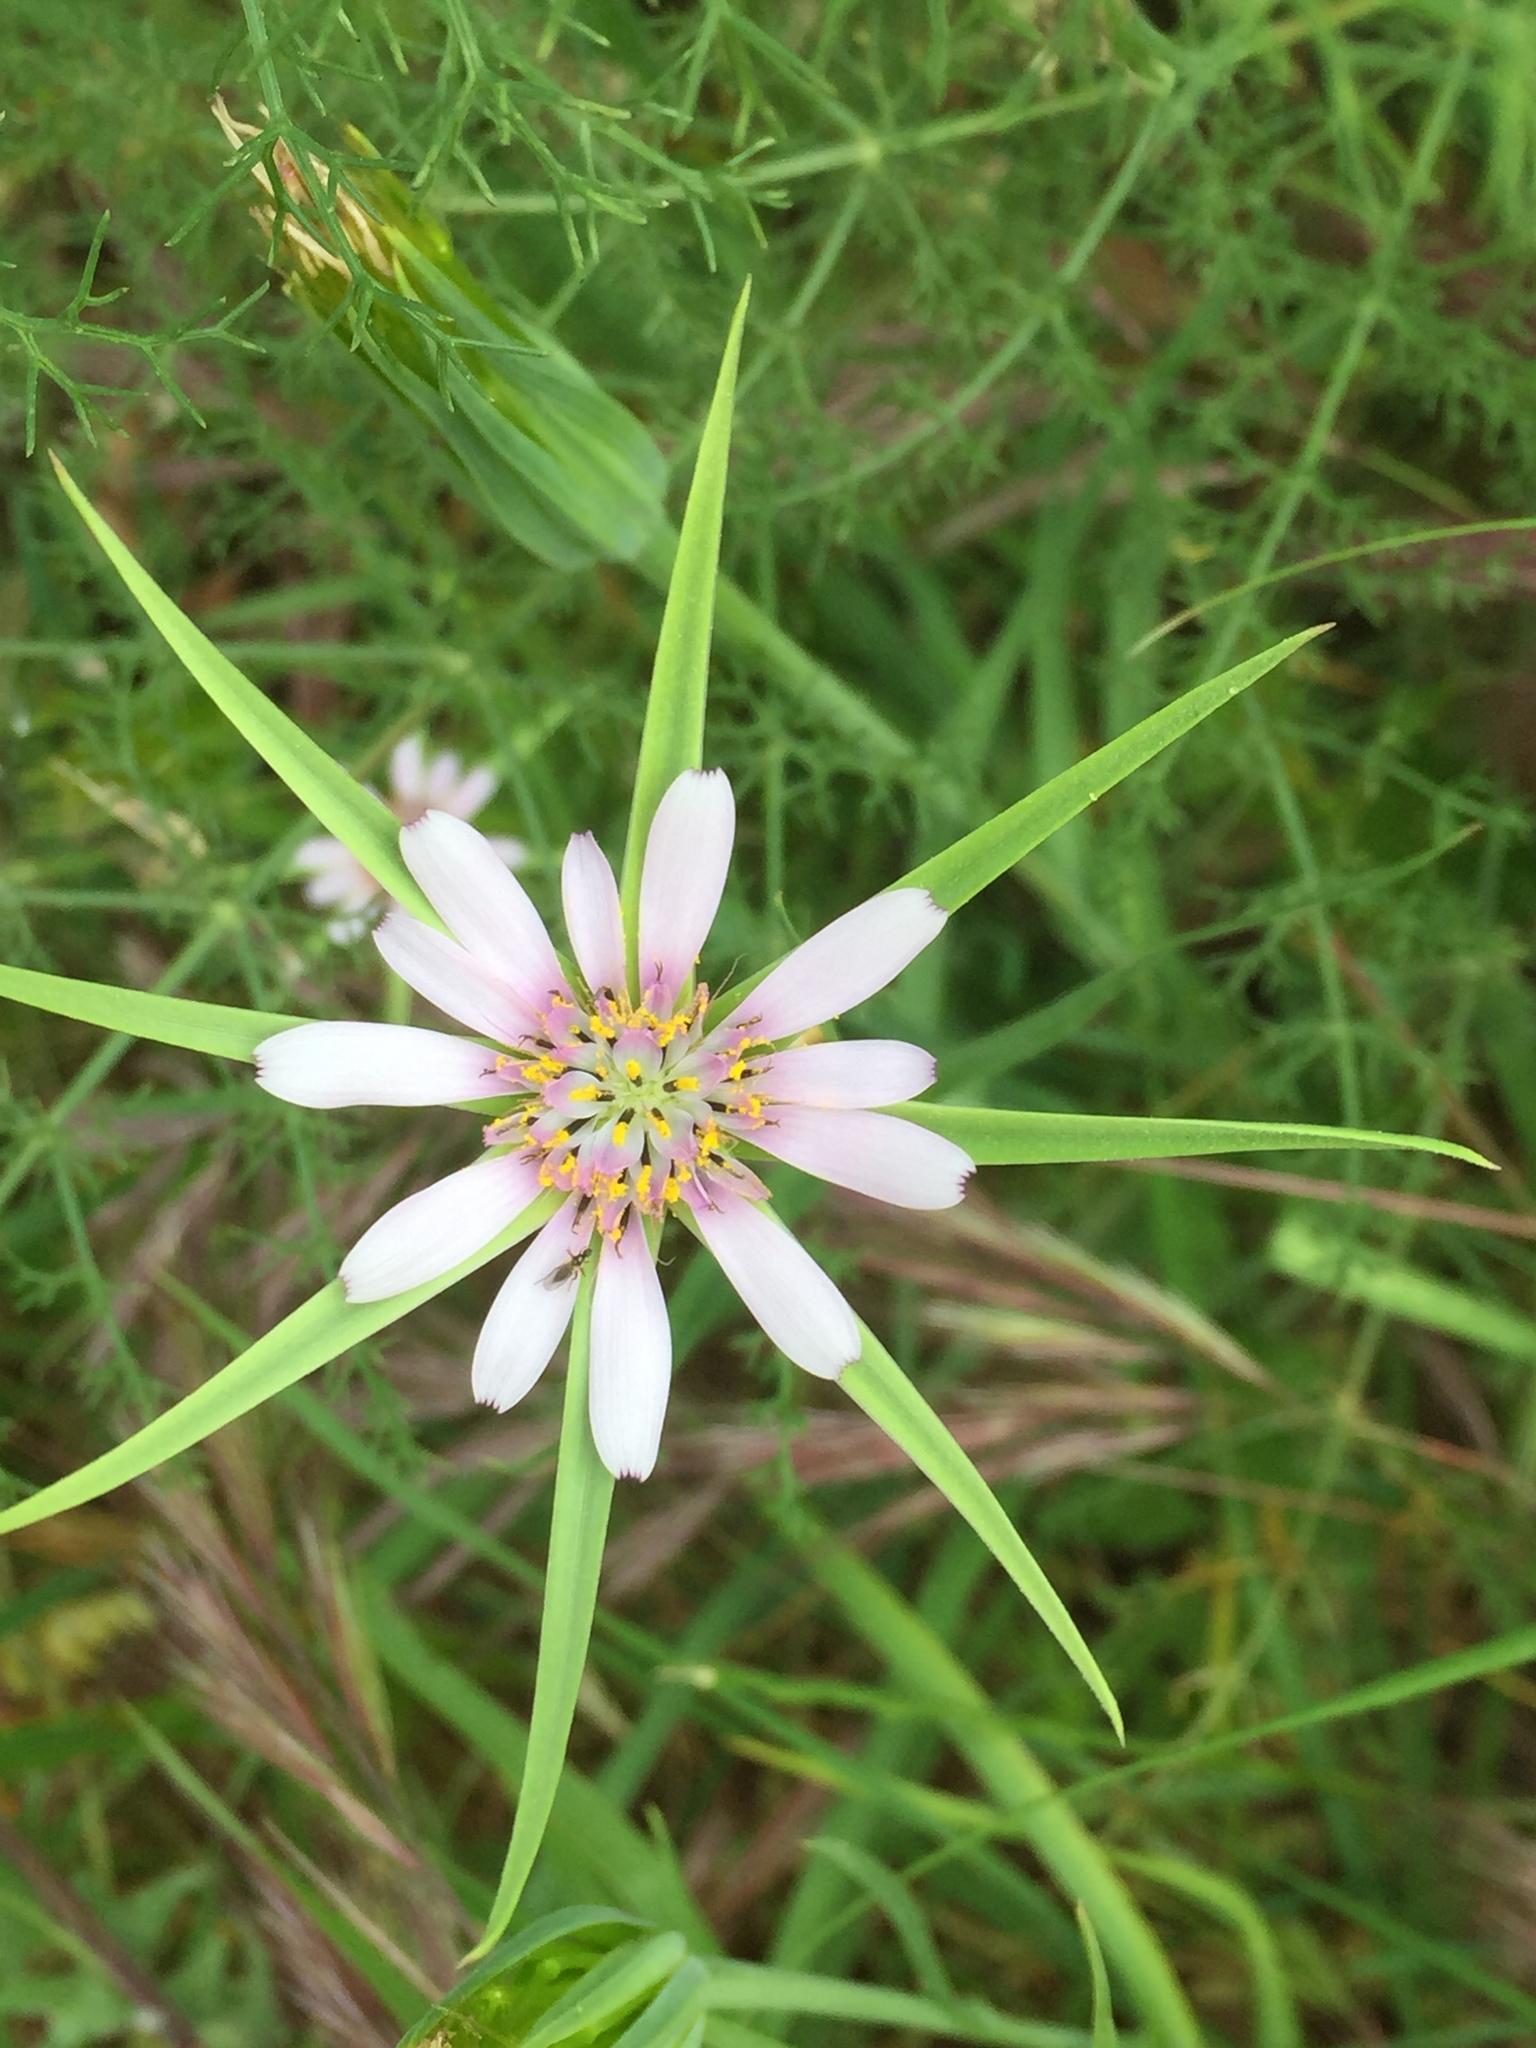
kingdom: Plantae
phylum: Tracheophyta
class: Magnoliopsida
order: Asterales
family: Asteraceae
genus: Geropogon
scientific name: Geropogon hybridus
